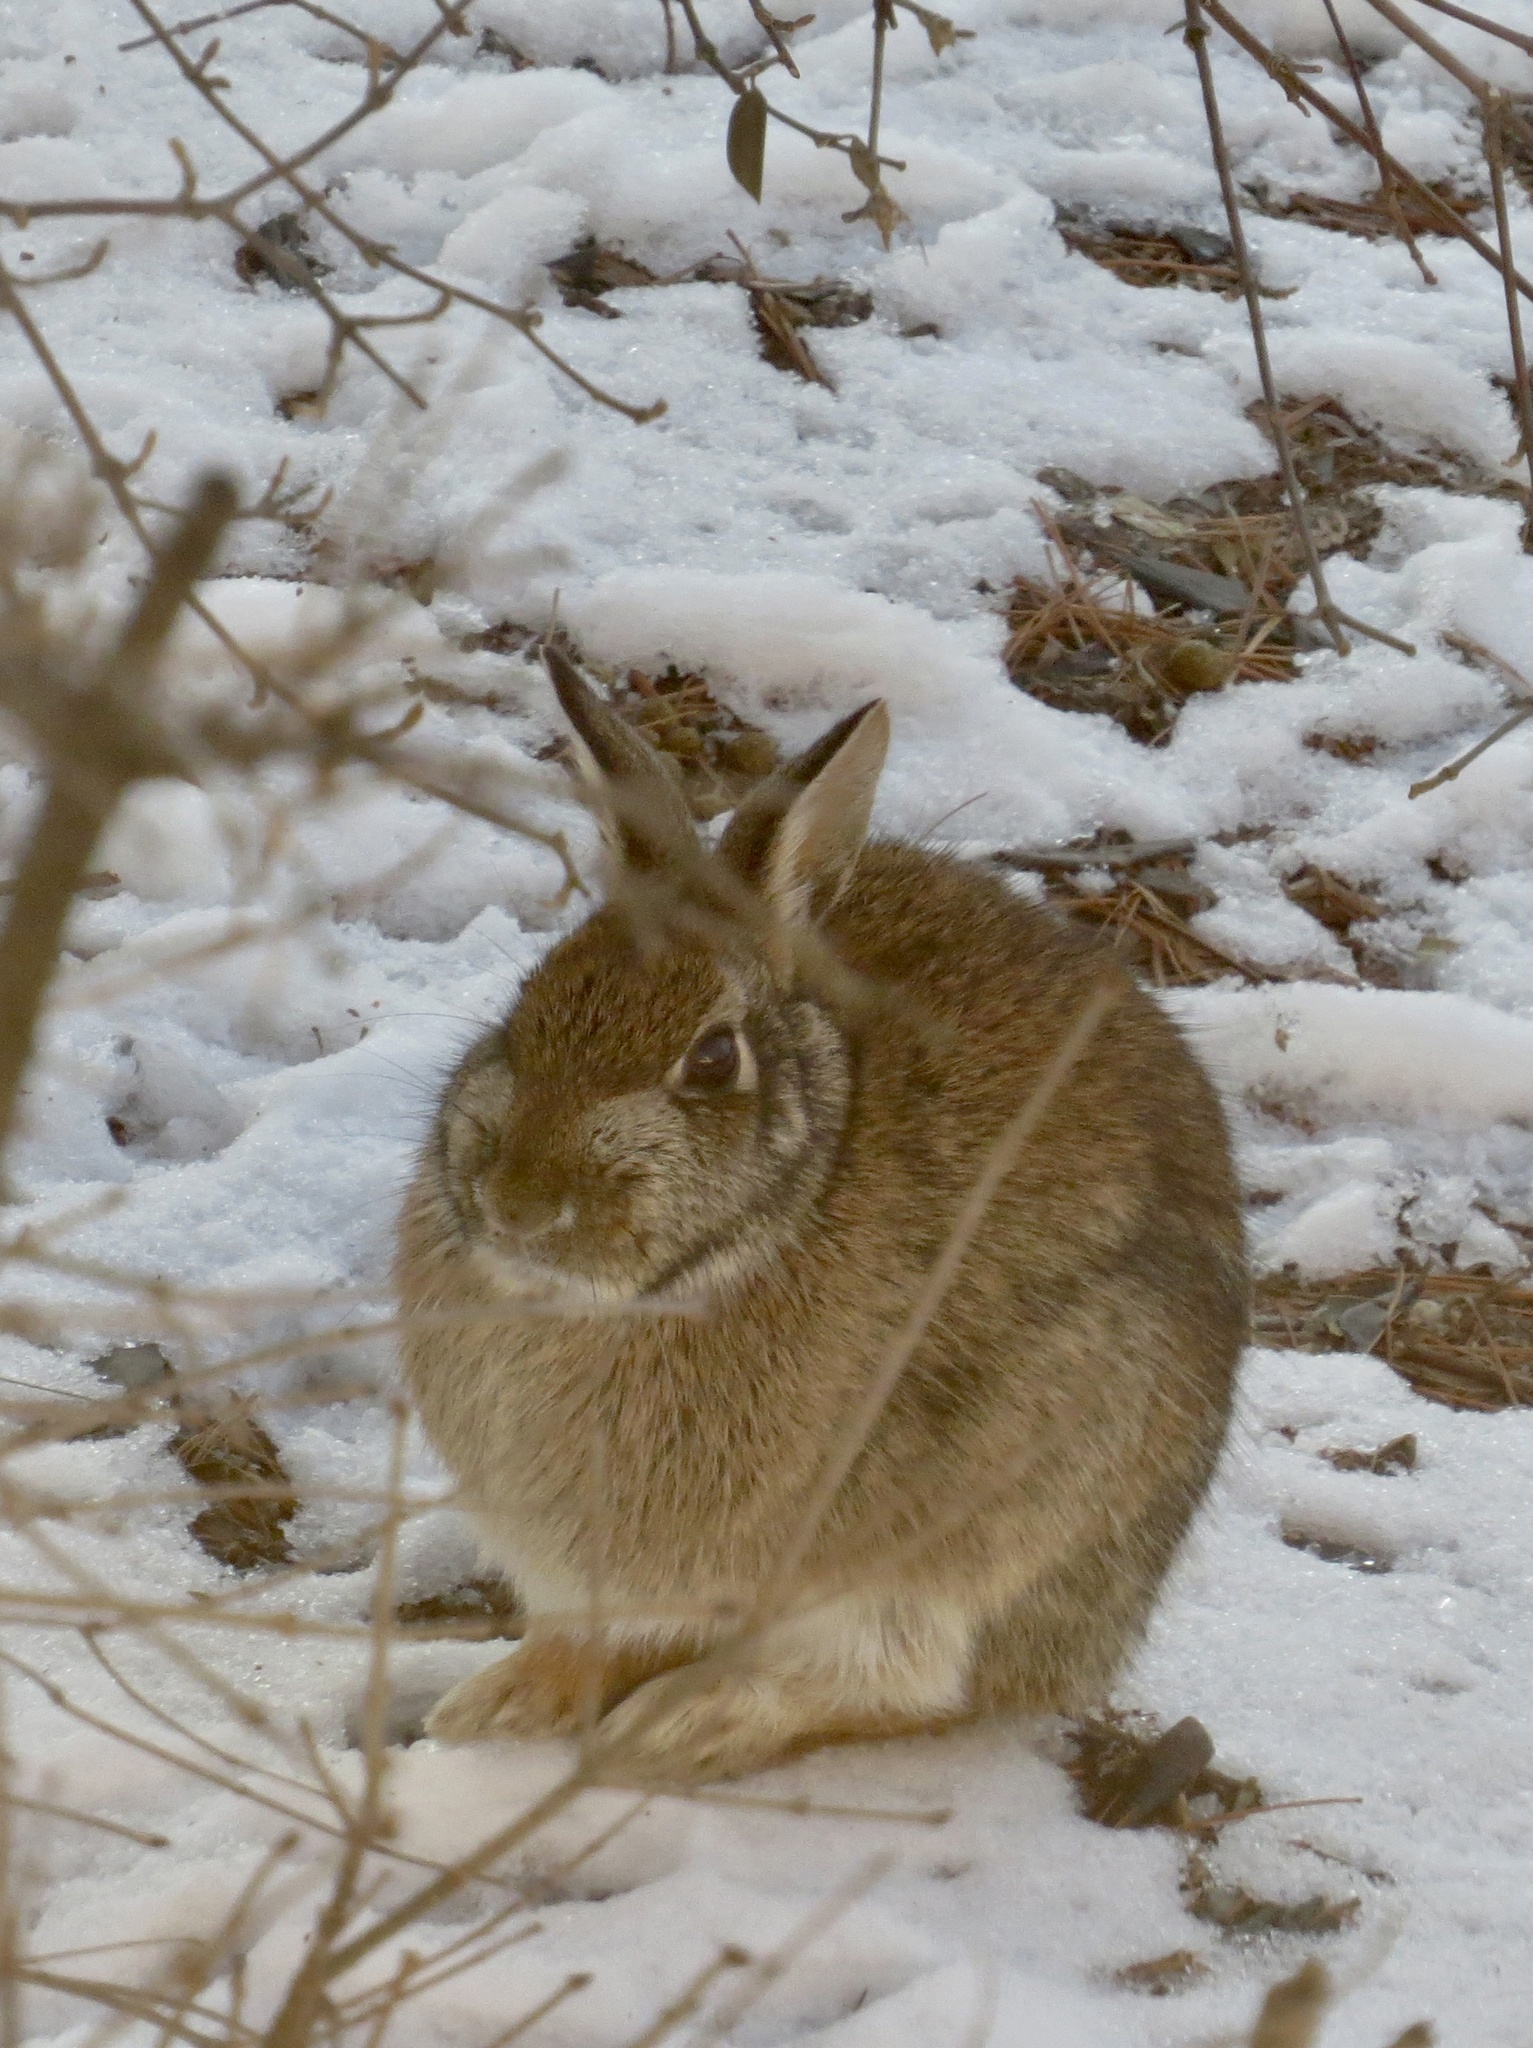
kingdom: Animalia
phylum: Chordata
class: Mammalia
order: Lagomorpha
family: Leporidae
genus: Sylvilagus
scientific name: Sylvilagus floridanus
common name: Eastern cottontail
